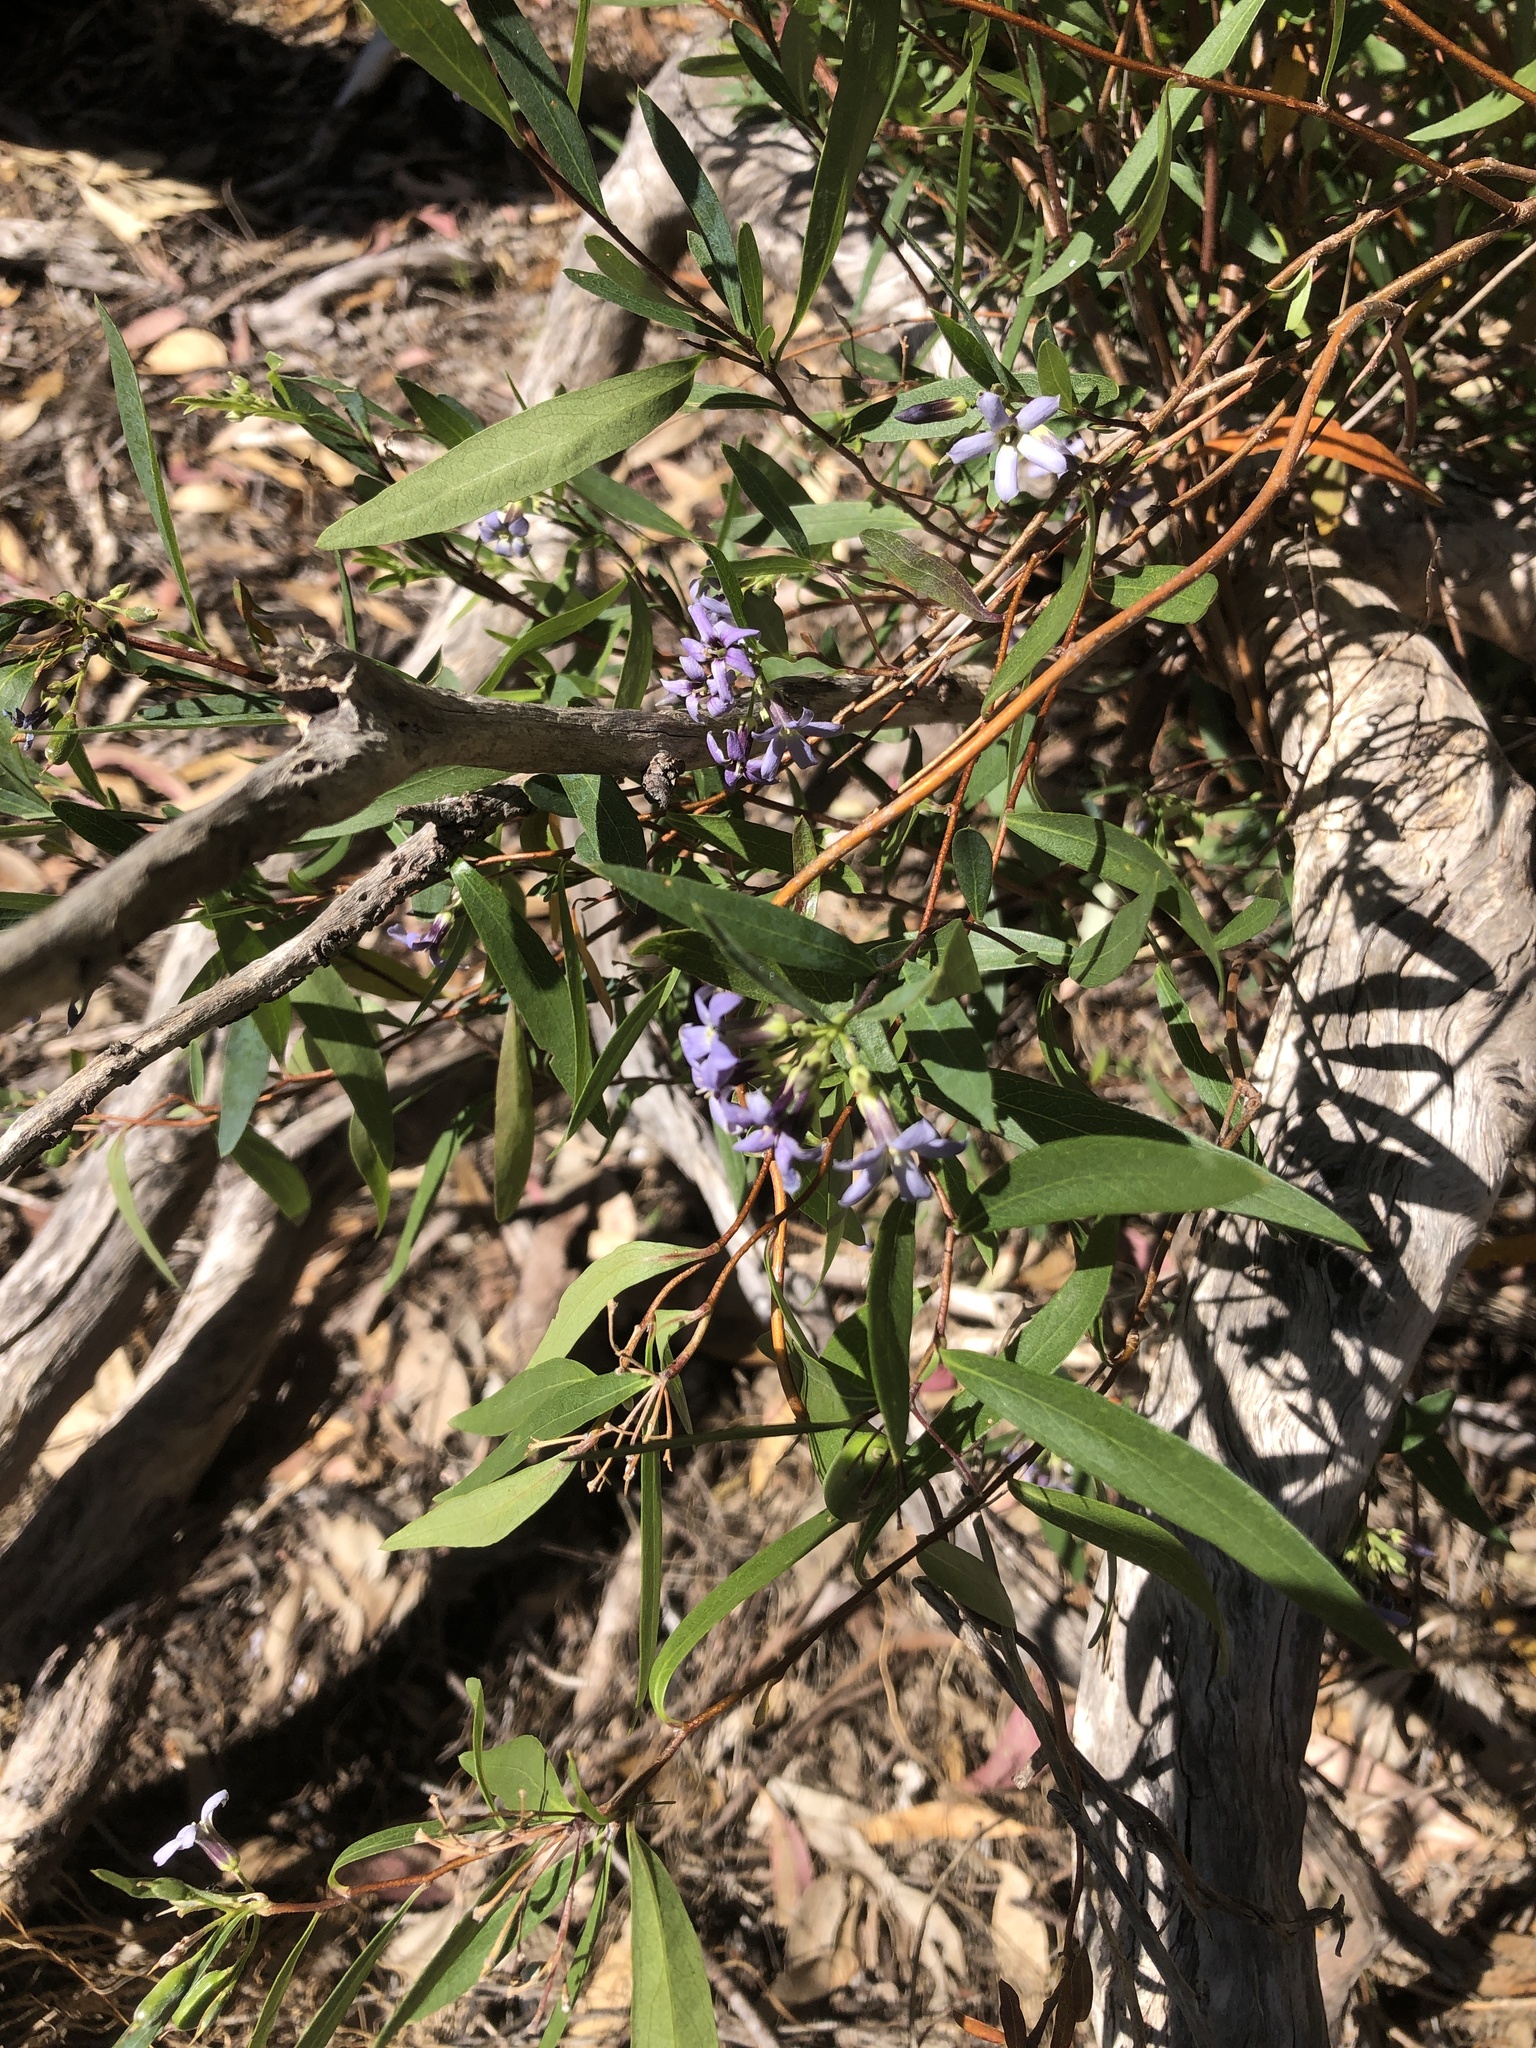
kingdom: Plantae
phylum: Tracheophyta
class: Magnoliopsida
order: Apiales
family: Pittosporaceae
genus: Billardiera
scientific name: Billardiera cymosa
